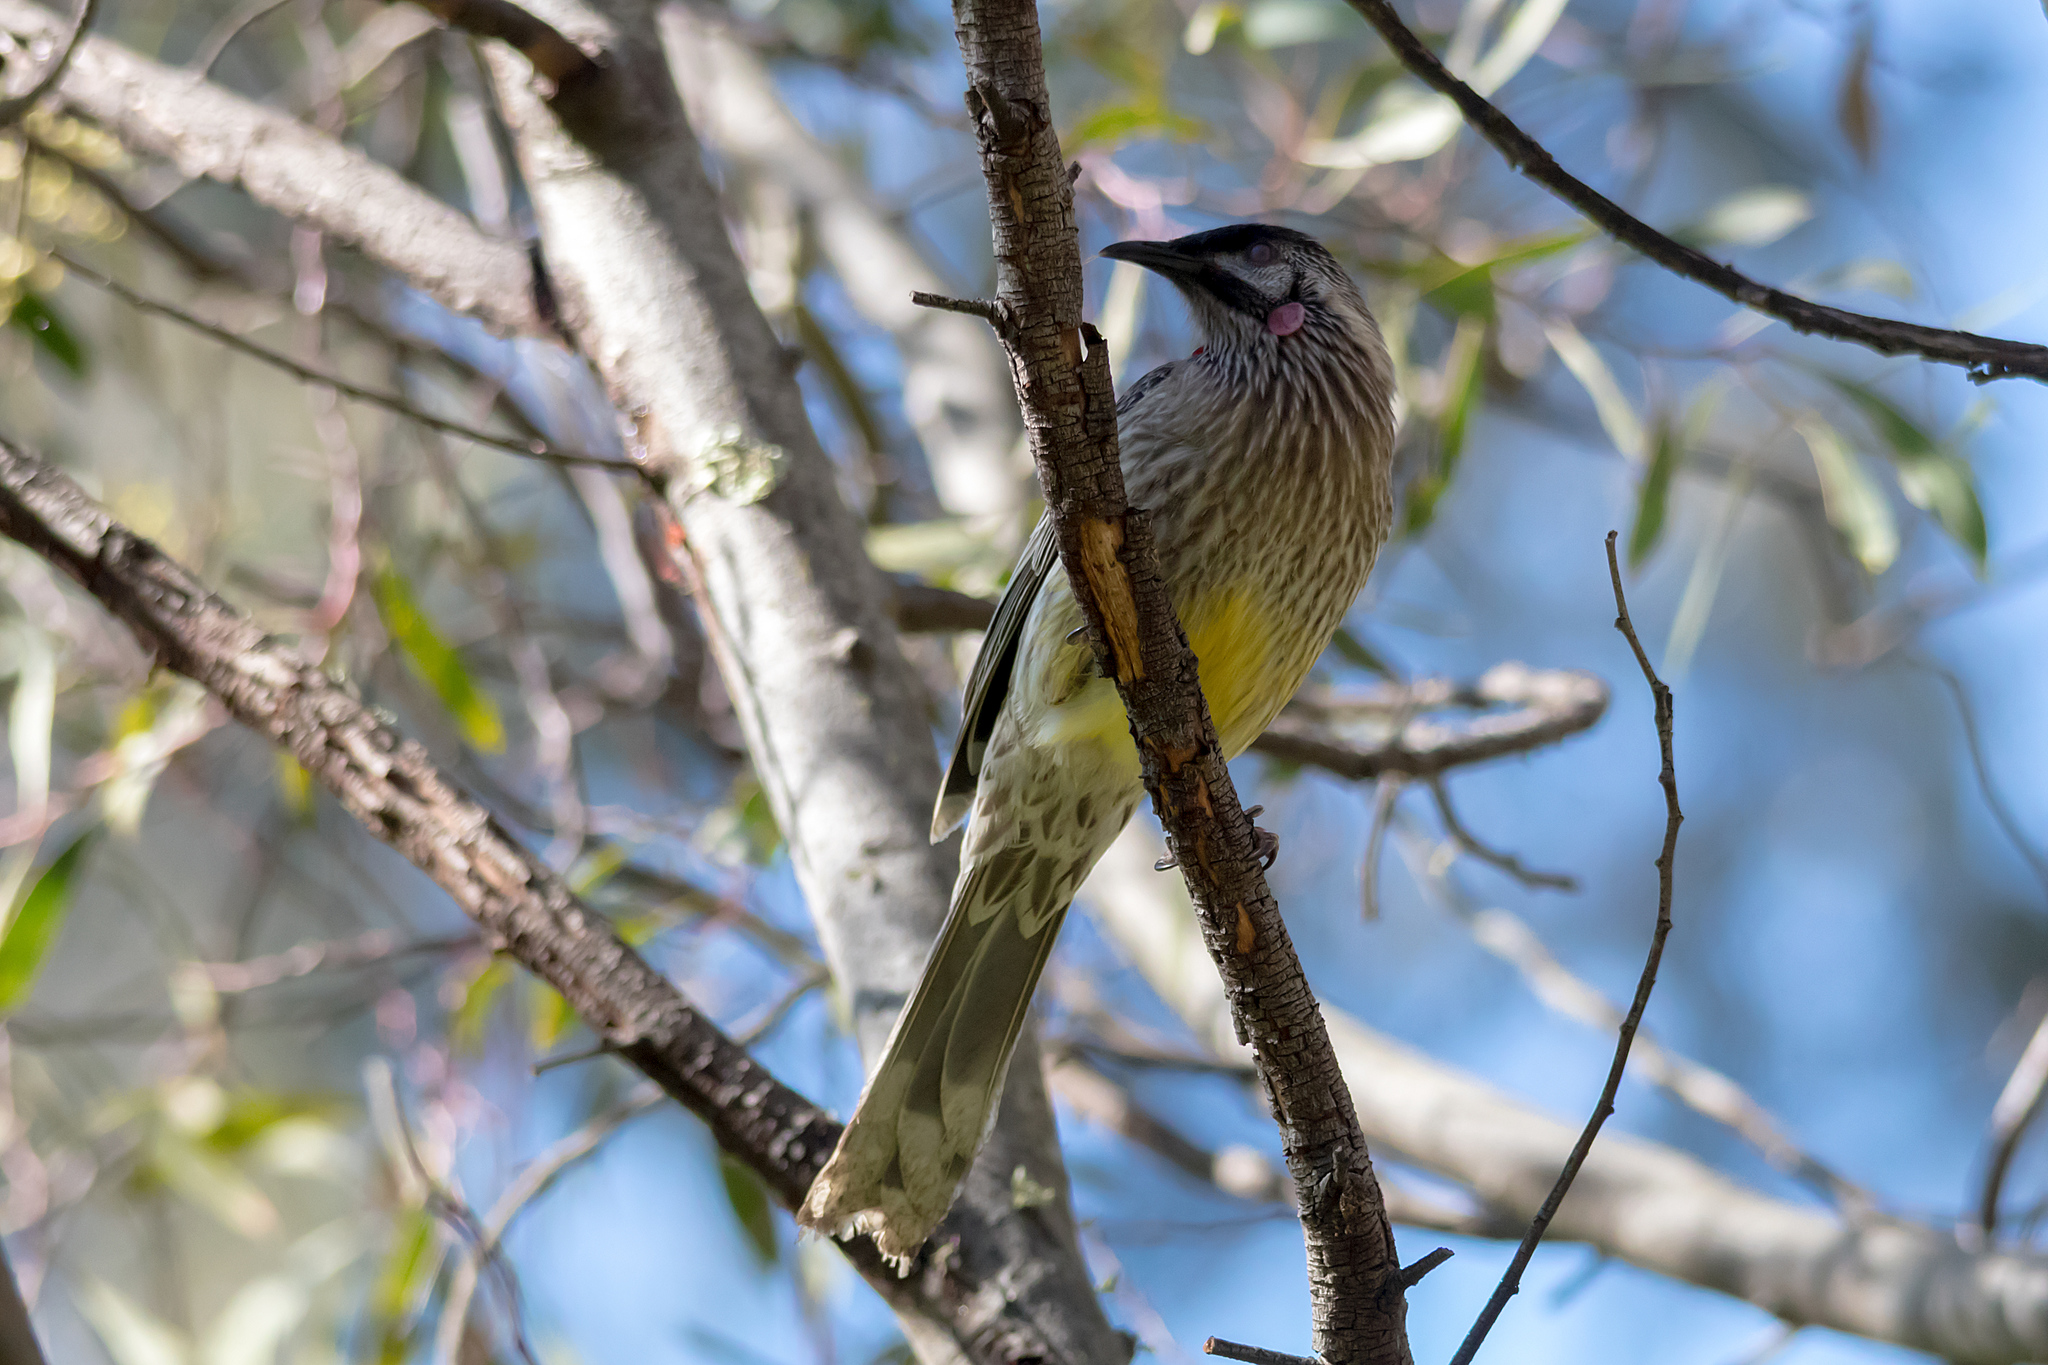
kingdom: Animalia
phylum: Chordata
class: Aves
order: Passeriformes
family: Meliphagidae
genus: Anthochaera
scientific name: Anthochaera carunculata
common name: Red wattlebird
